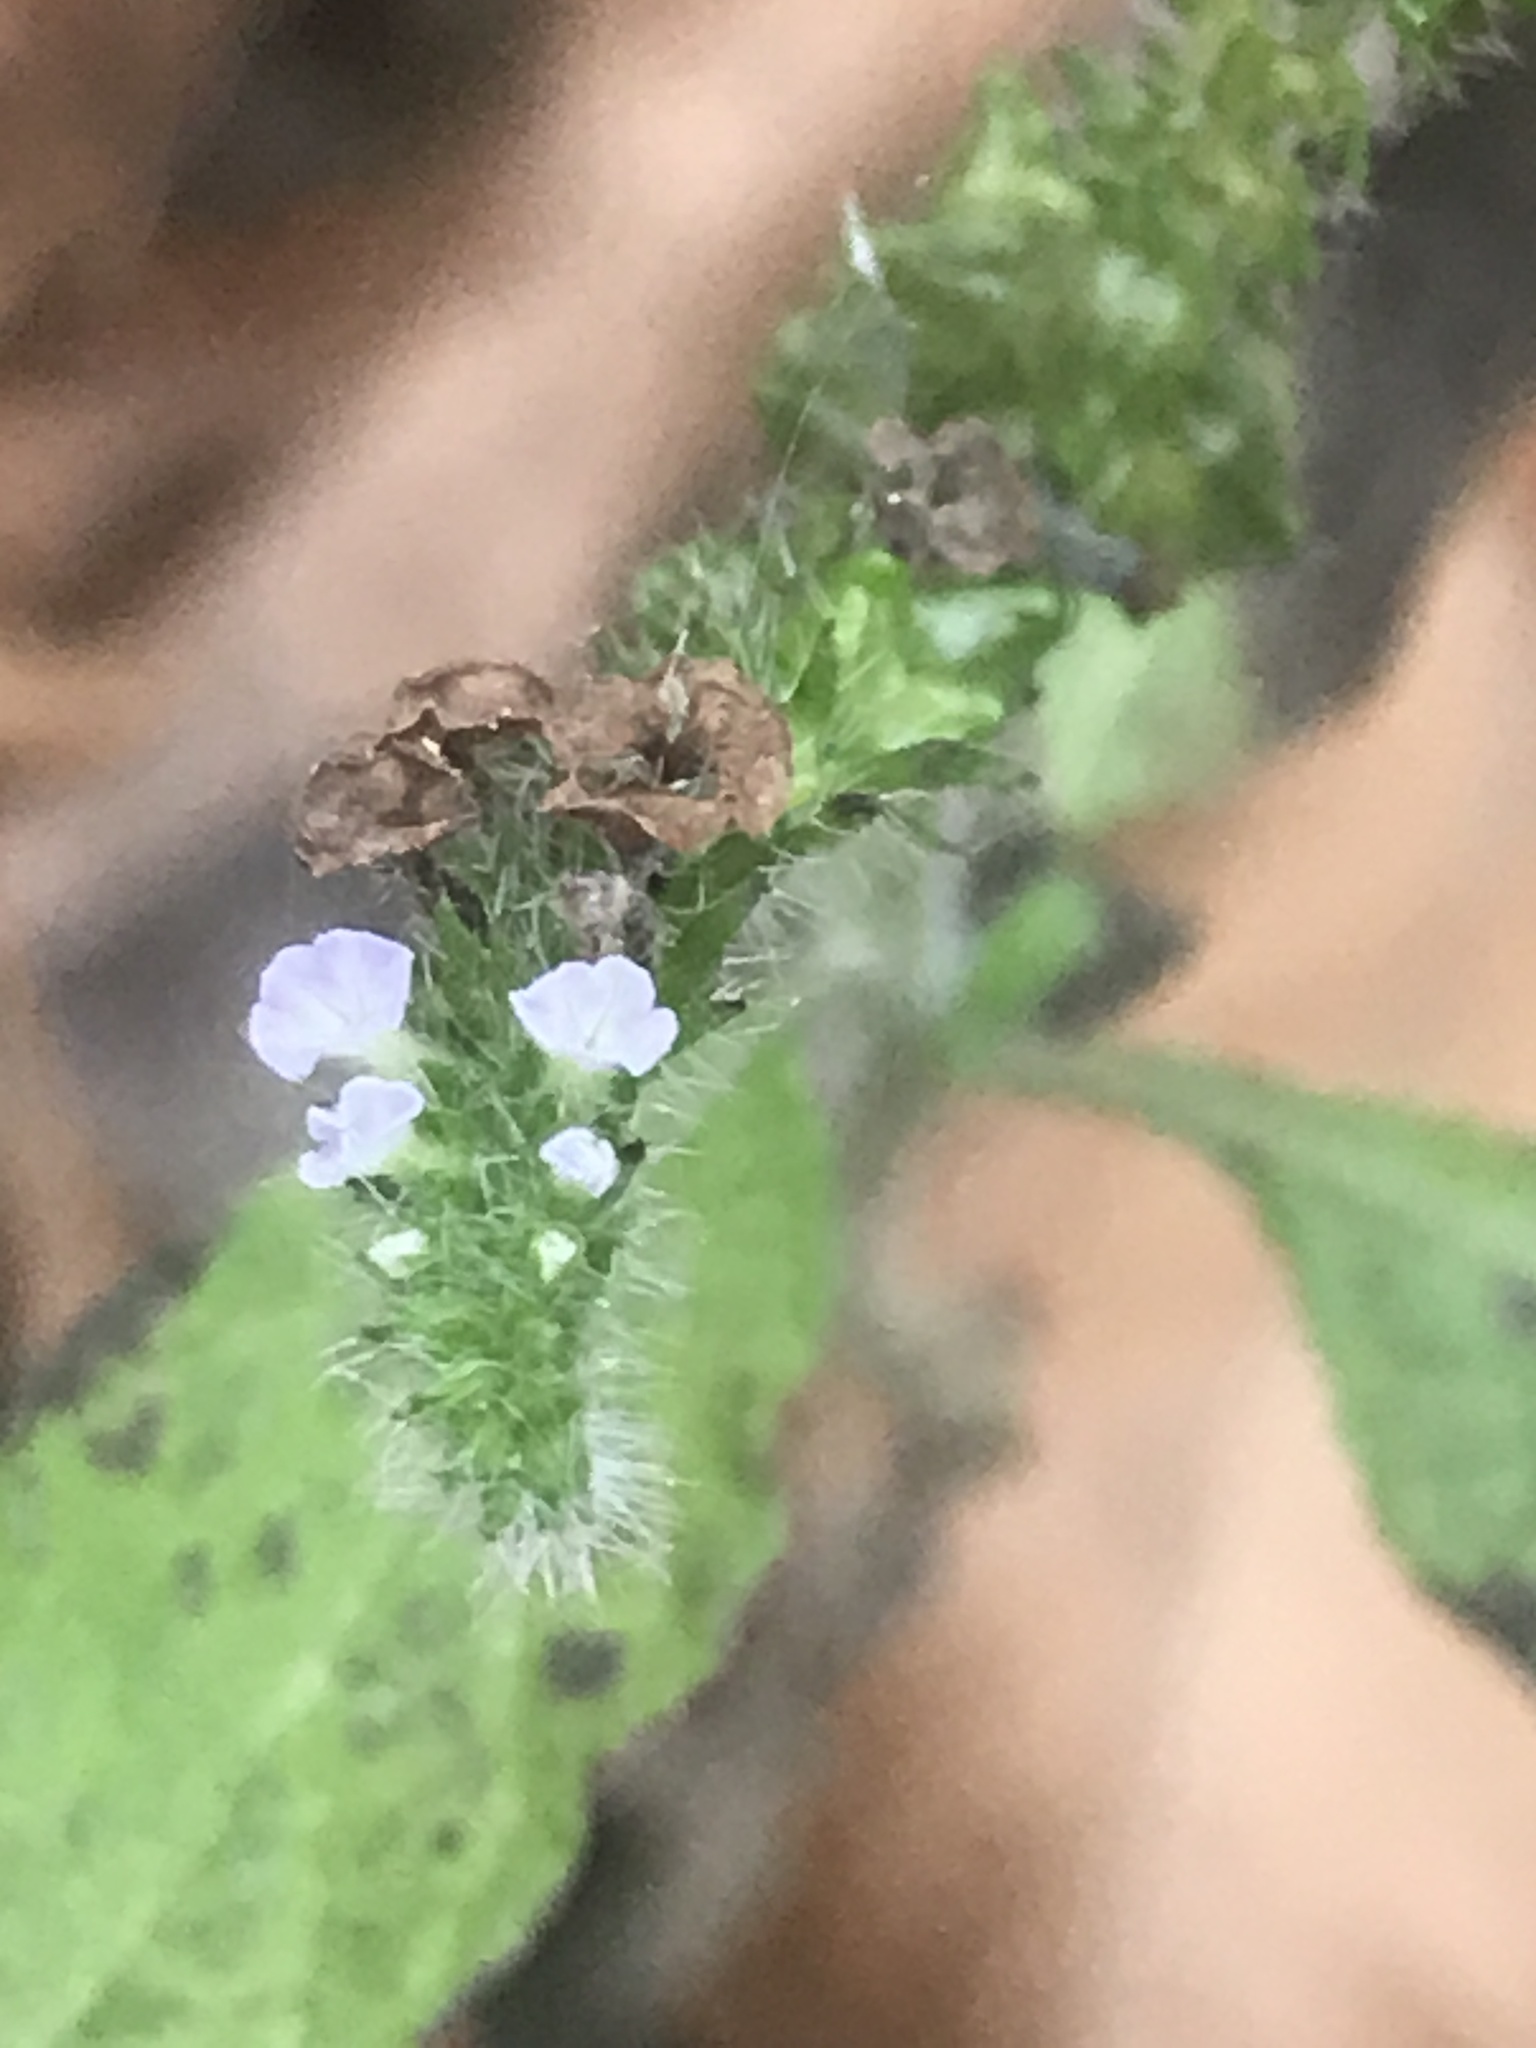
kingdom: Plantae
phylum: Tracheophyta
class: Magnoliopsida
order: Boraginales
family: Heliotropiaceae
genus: Heliotropium
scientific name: Heliotropium indicum
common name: Indian heliotrope
